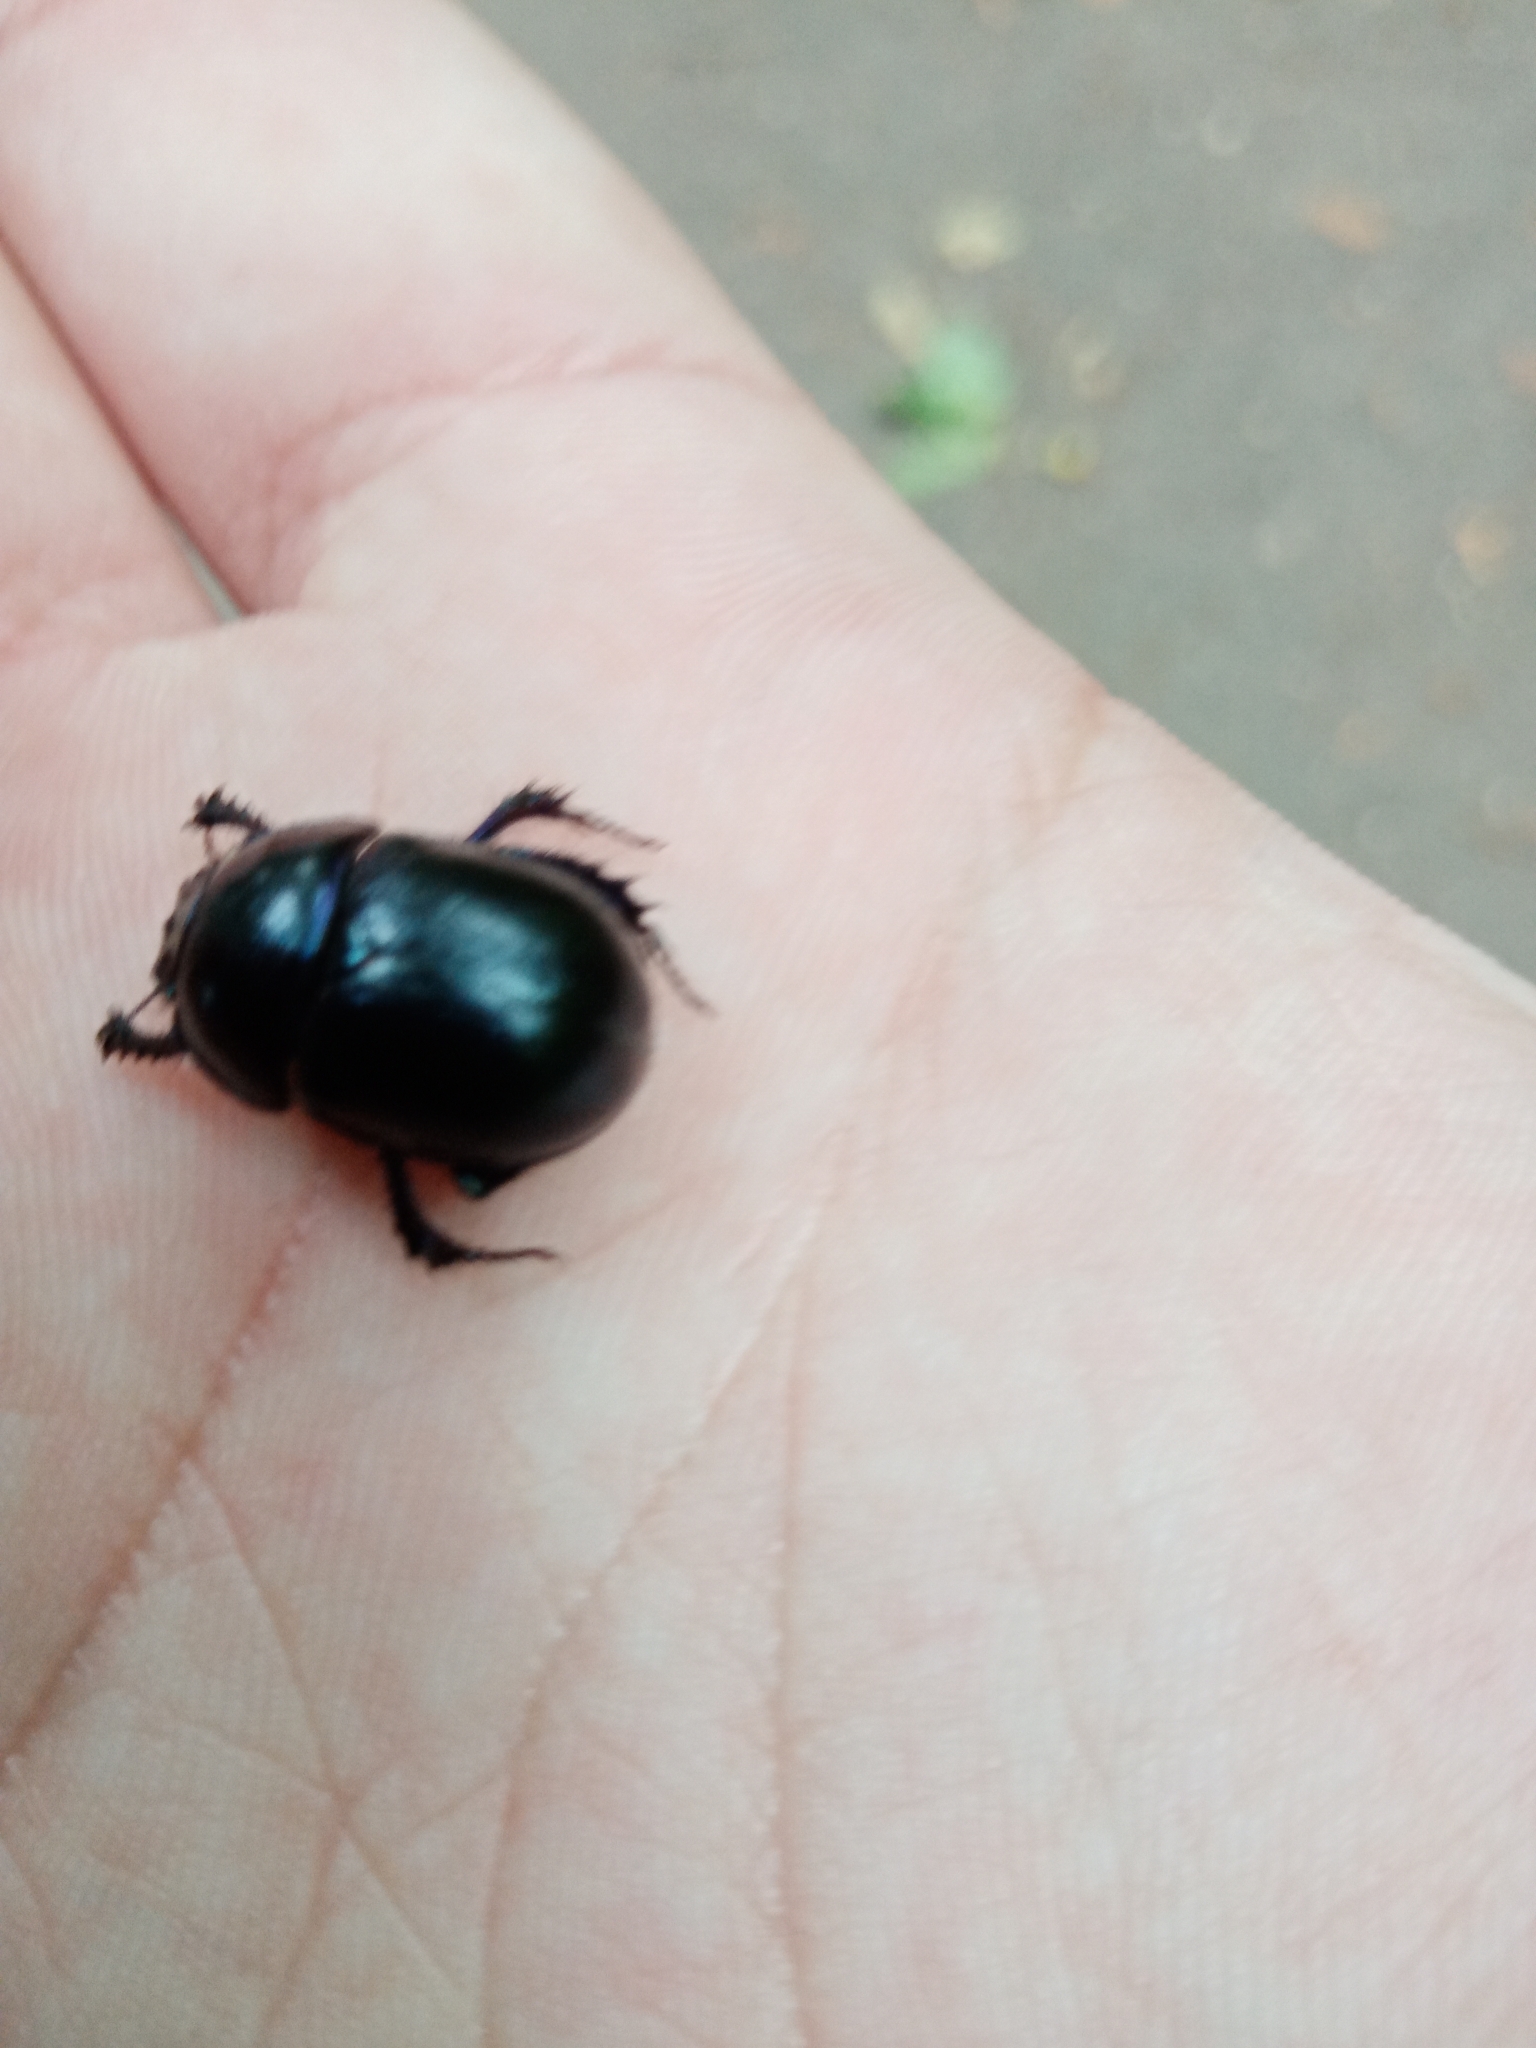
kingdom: Animalia
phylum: Arthropoda
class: Insecta
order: Coleoptera
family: Geotrupidae
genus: Anoplotrupes
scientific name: Anoplotrupes stercorosus
